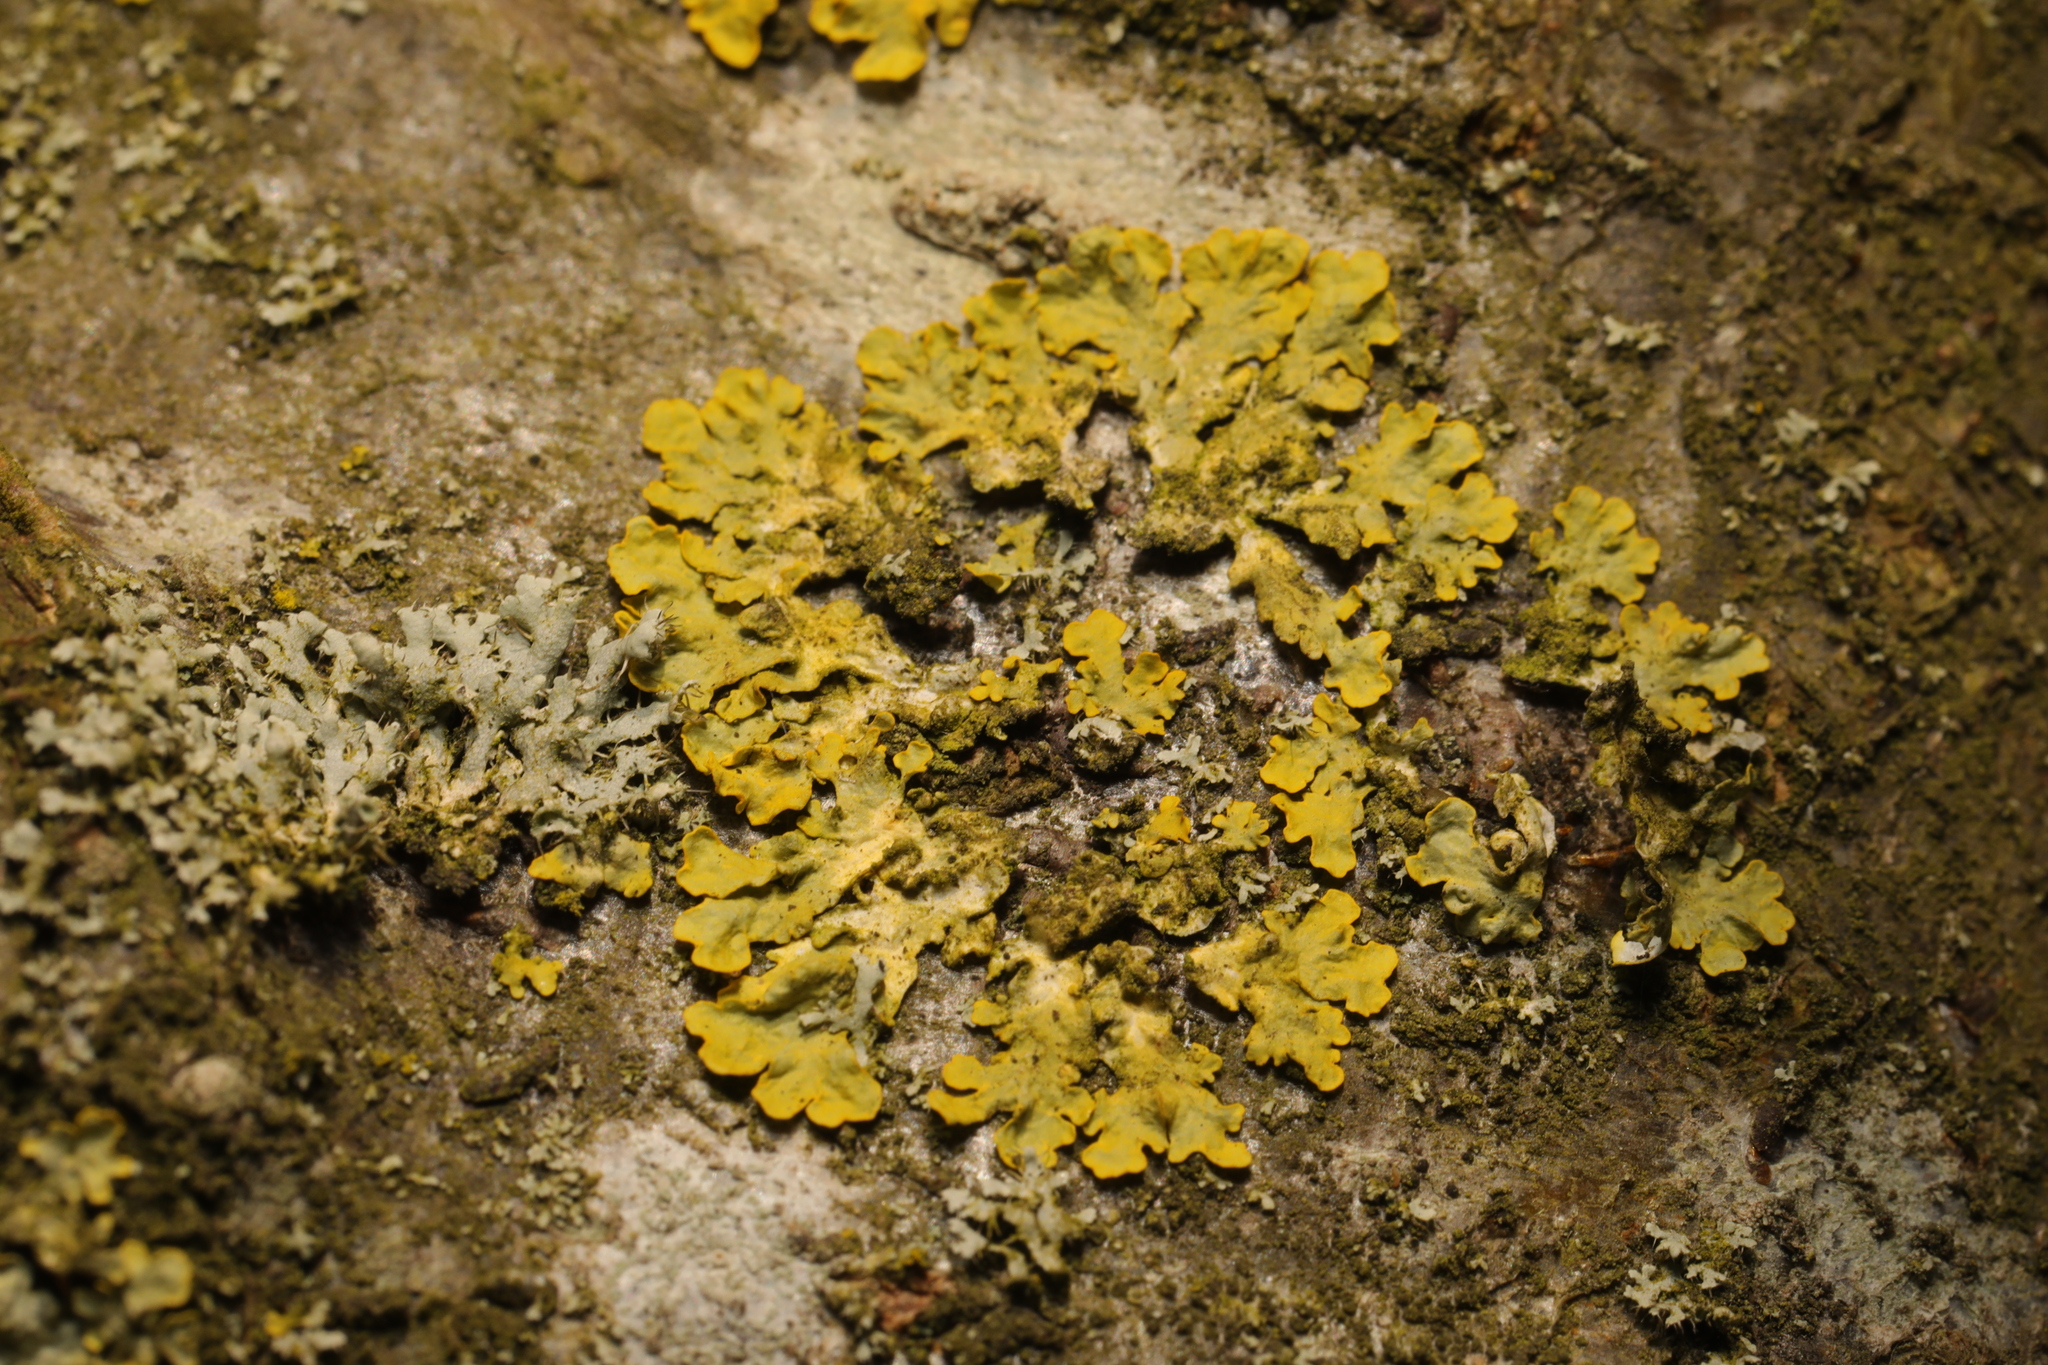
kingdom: Fungi
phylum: Ascomycota
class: Lecanoromycetes
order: Teloschistales
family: Teloschistaceae
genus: Xanthoria
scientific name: Xanthoria parietina
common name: Common orange lichen
